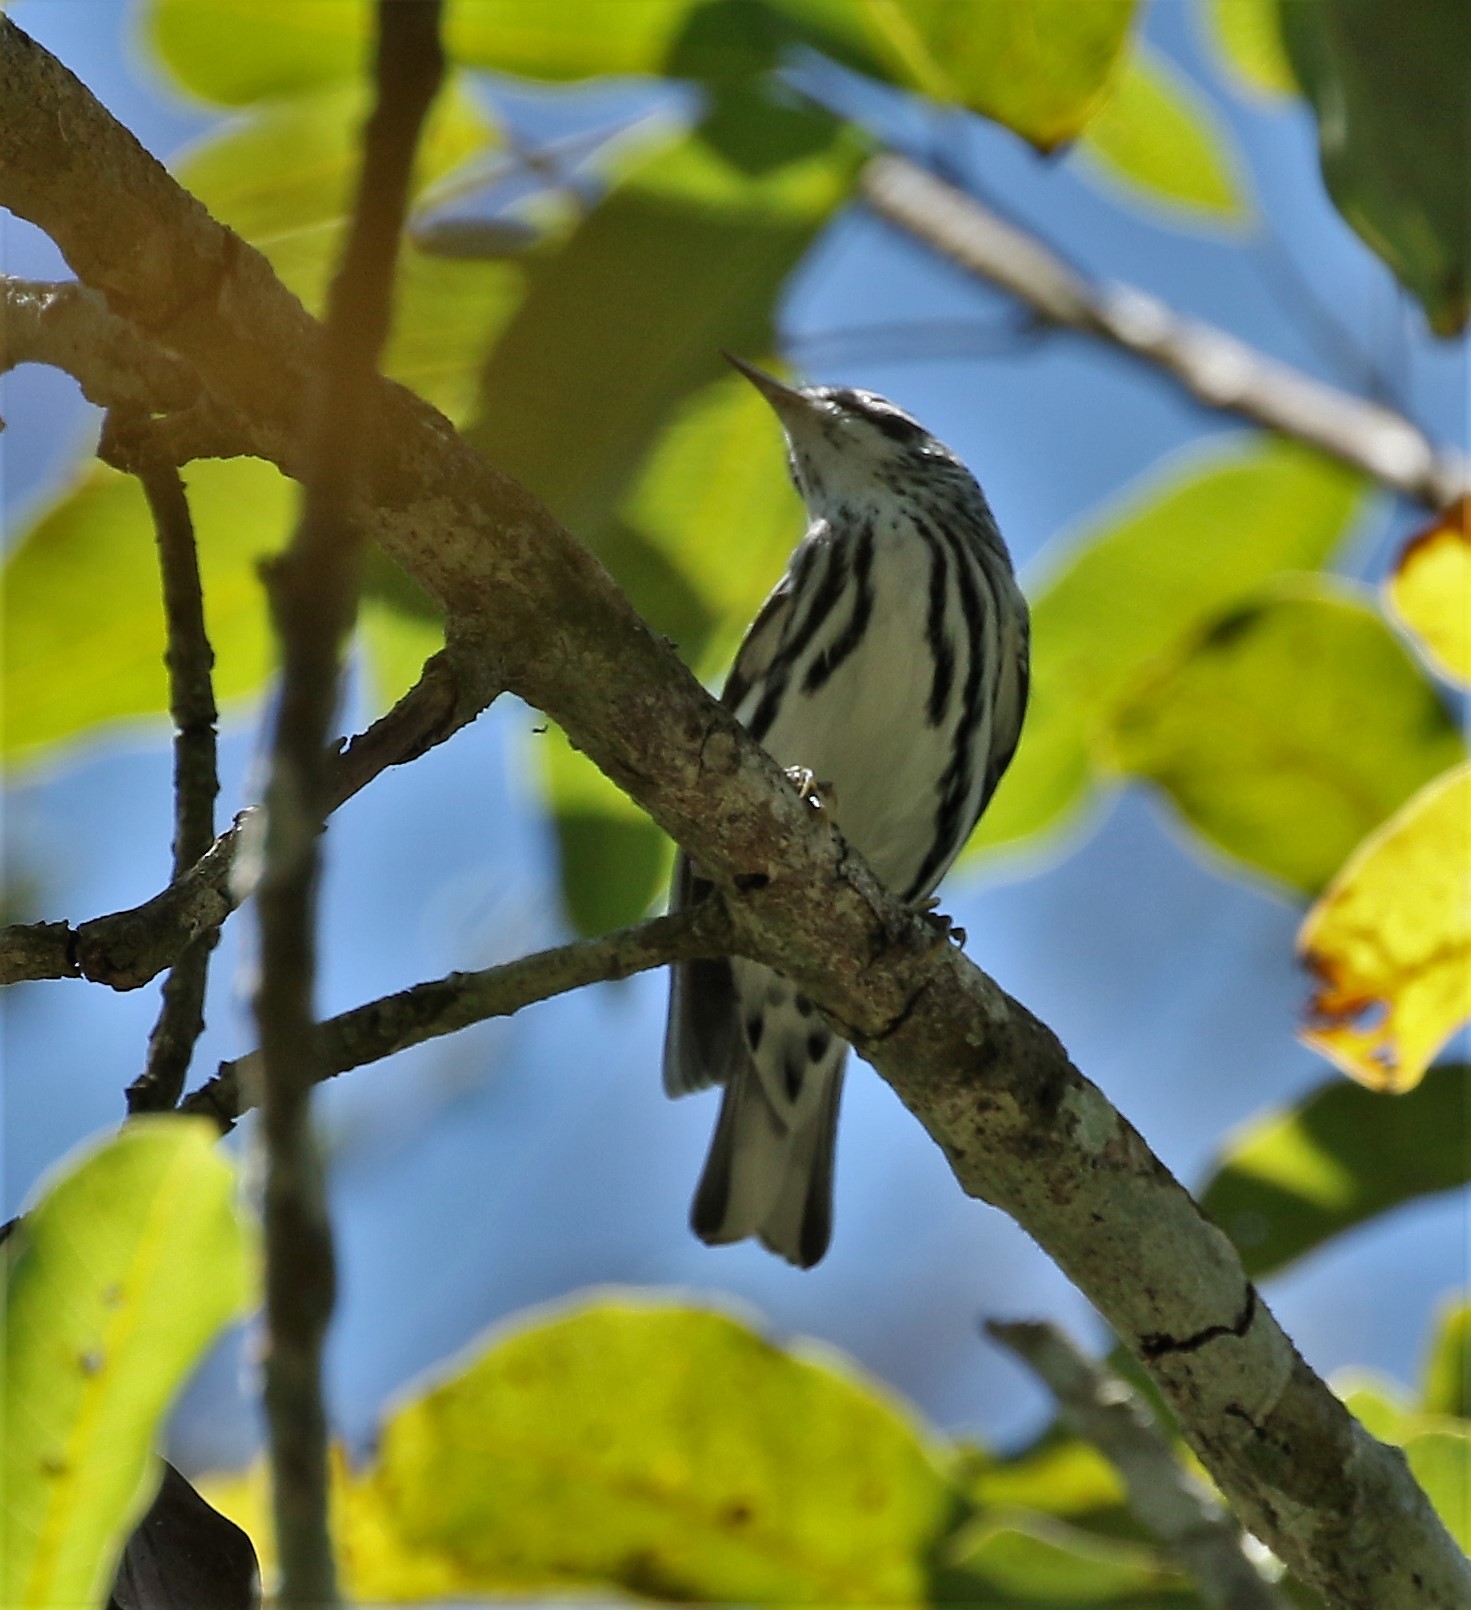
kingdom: Animalia
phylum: Chordata
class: Aves
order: Passeriformes
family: Parulidae
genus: Mniotilta
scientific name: Mniotilta varia
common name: Black-and-white warbler
